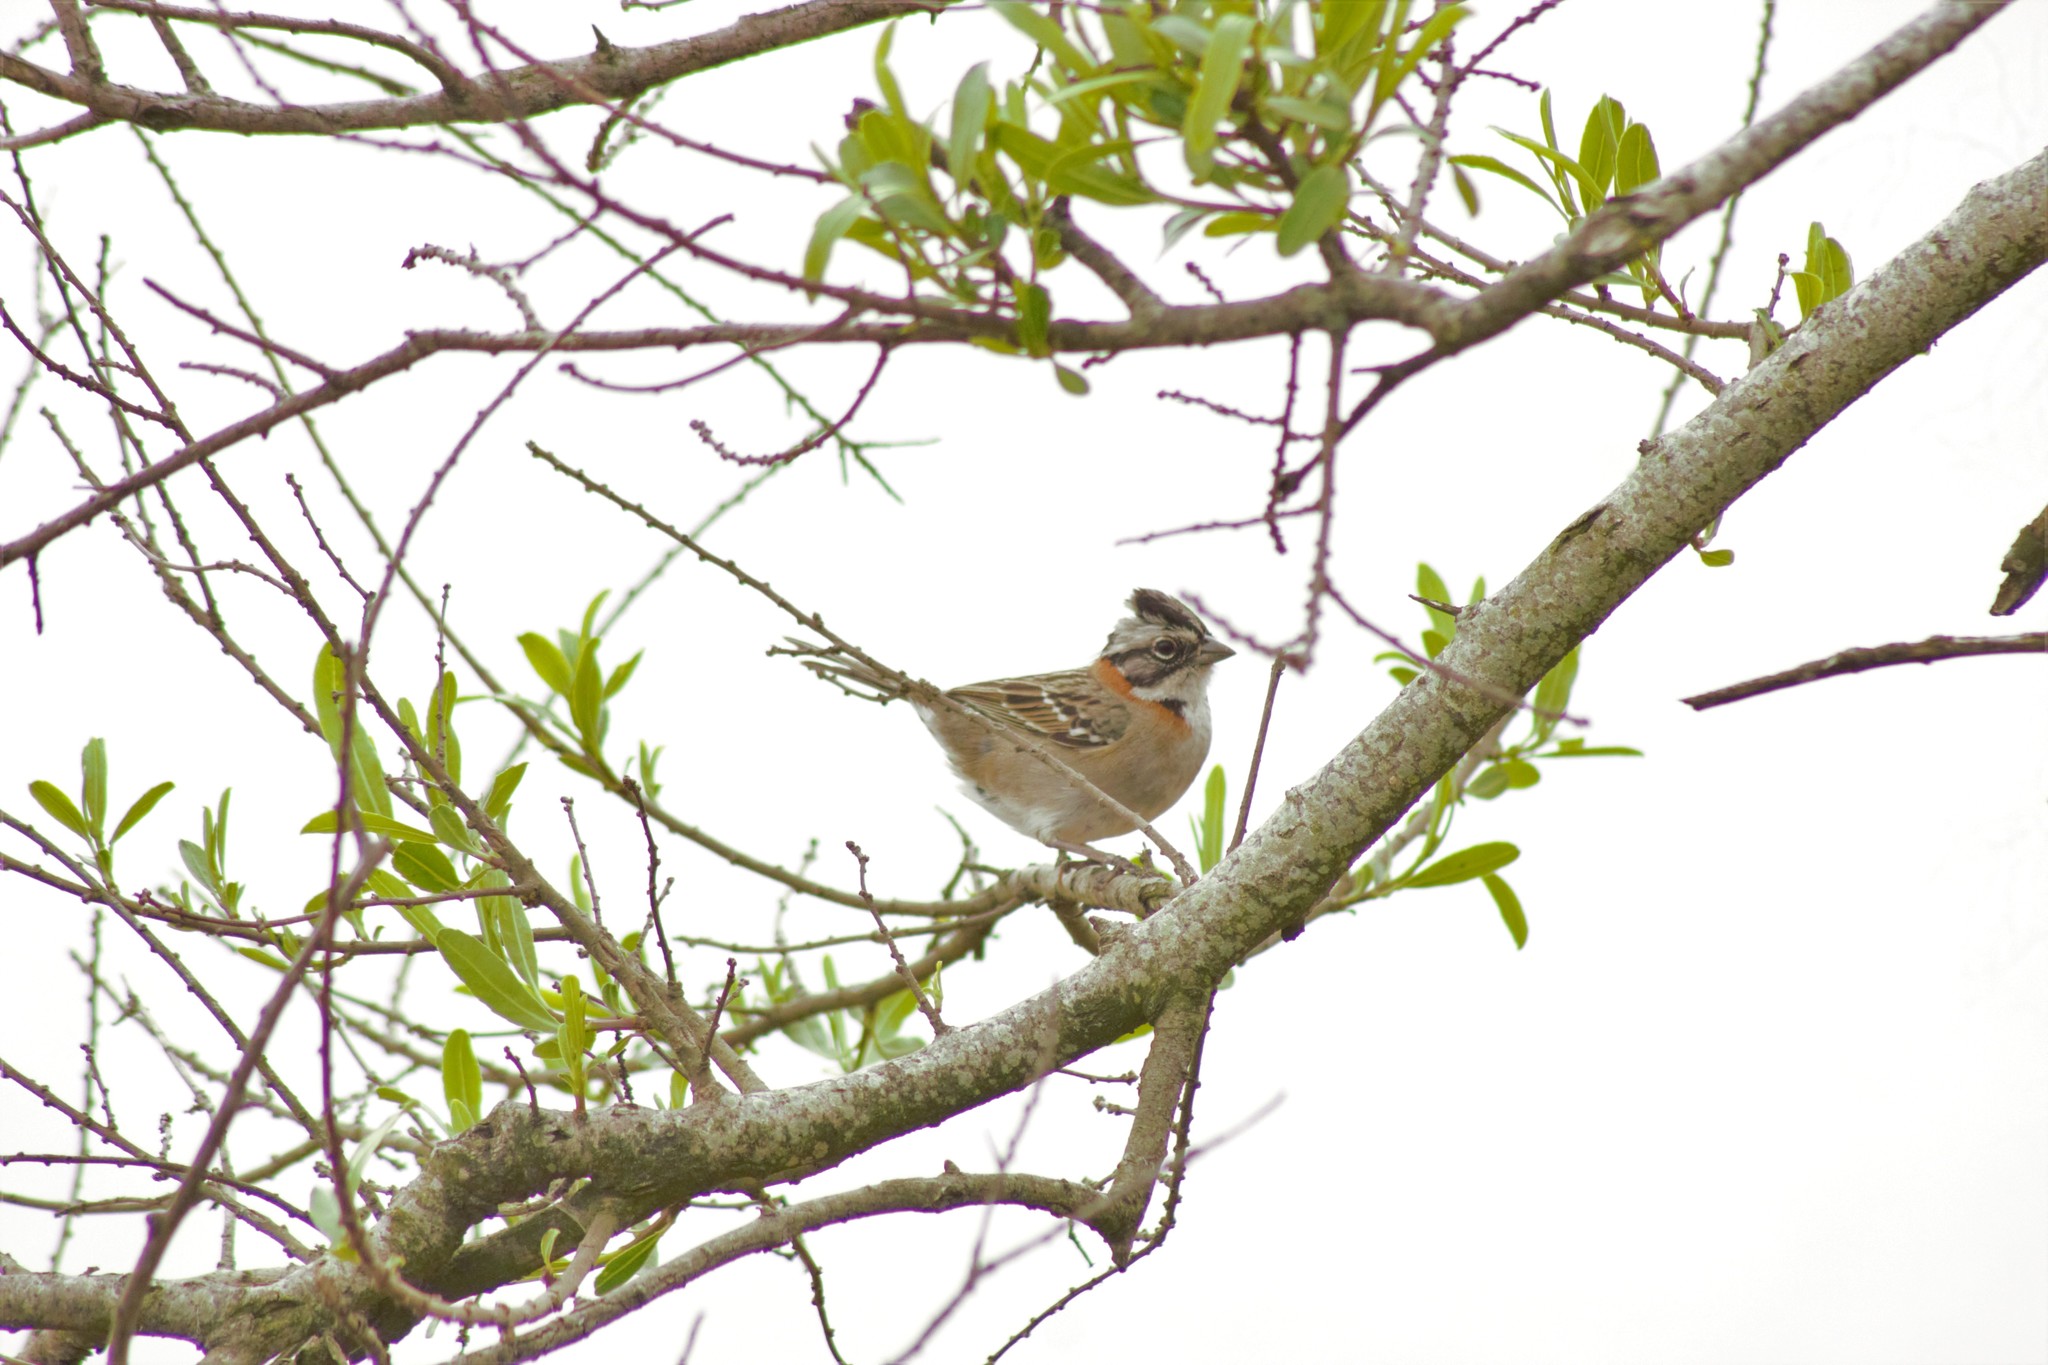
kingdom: Animalia
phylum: Chordata
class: Aves
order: Passeriformes
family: Passerellidae
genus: Zonotrichia
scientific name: Zonotrichia capensis
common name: Rufous-collared sparrow
